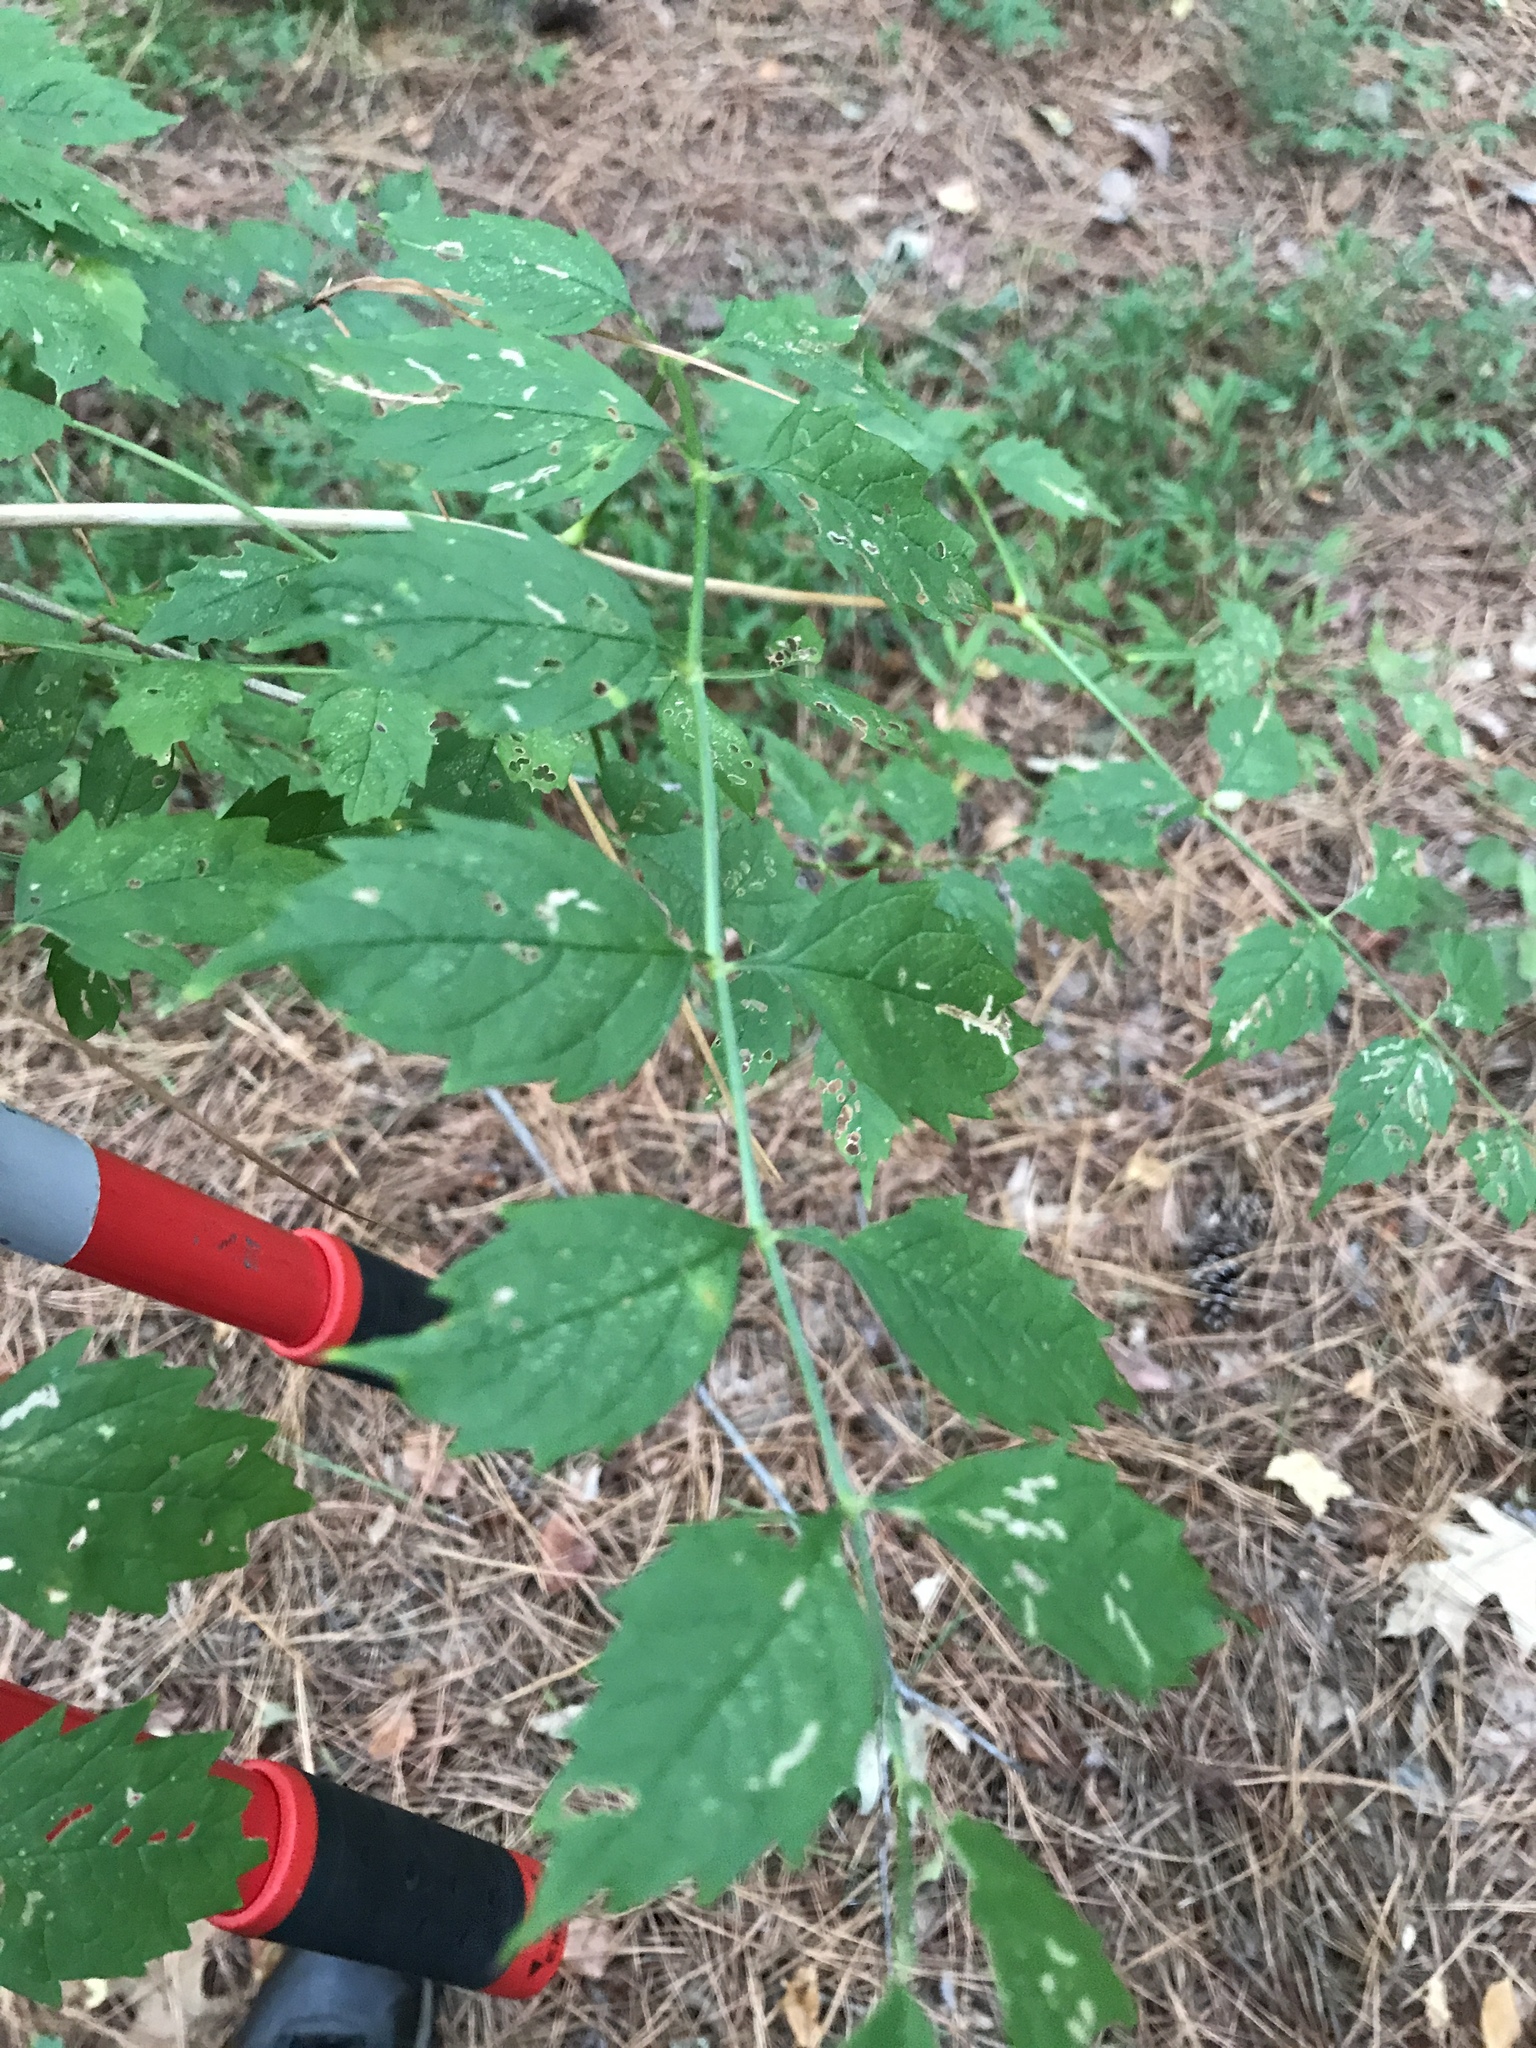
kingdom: Plantae
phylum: Tracheophyta
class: Magnoliopsida
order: Lamiales
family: Bignoniaceae
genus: Campsis
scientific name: Campsis radicans
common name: Trumpet-creeper
